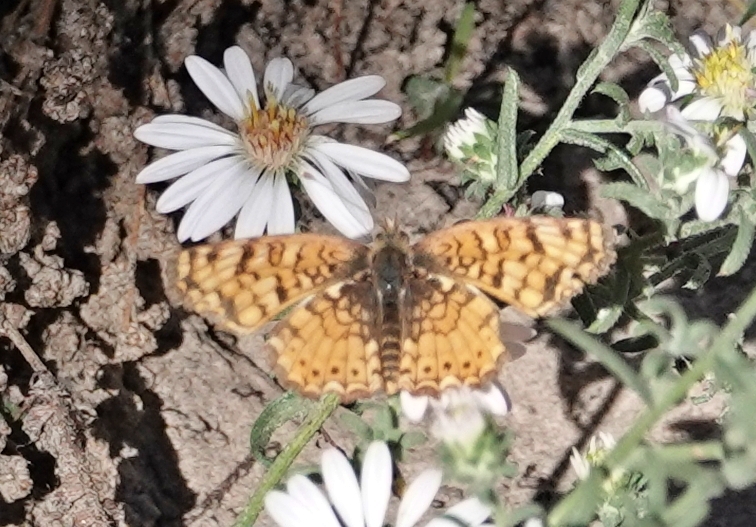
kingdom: Animalia
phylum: Arthropoda
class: Insecta
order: Lepidoptera
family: Nymphalidae
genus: Eresia
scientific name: Eresia aveyrona
